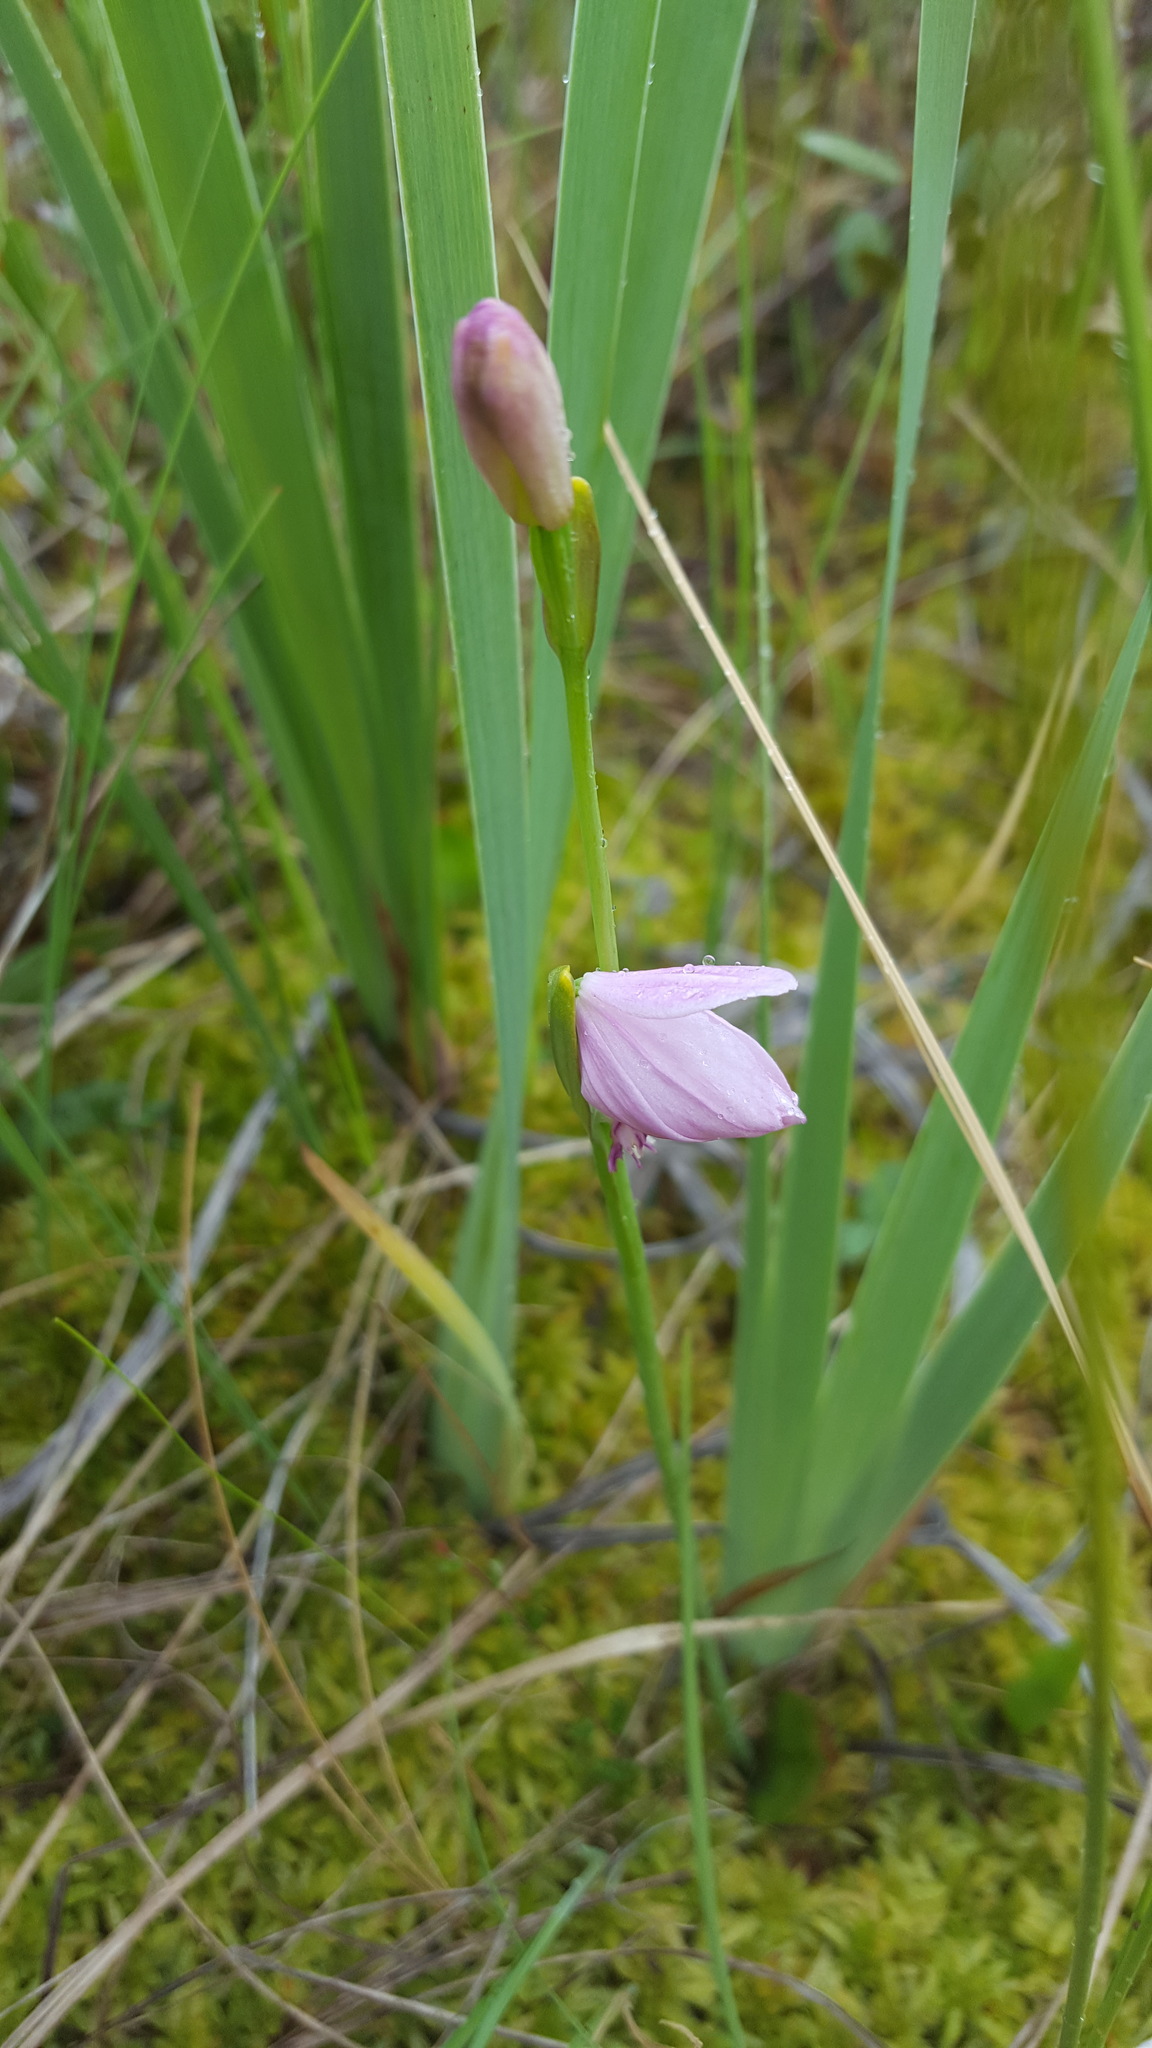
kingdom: Plantae
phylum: Tracheophyta
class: Liliopsida
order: Asparagales
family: Orchidaceae
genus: Pogonia
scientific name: Pogonia ophioglossoides
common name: Rose pogonia
